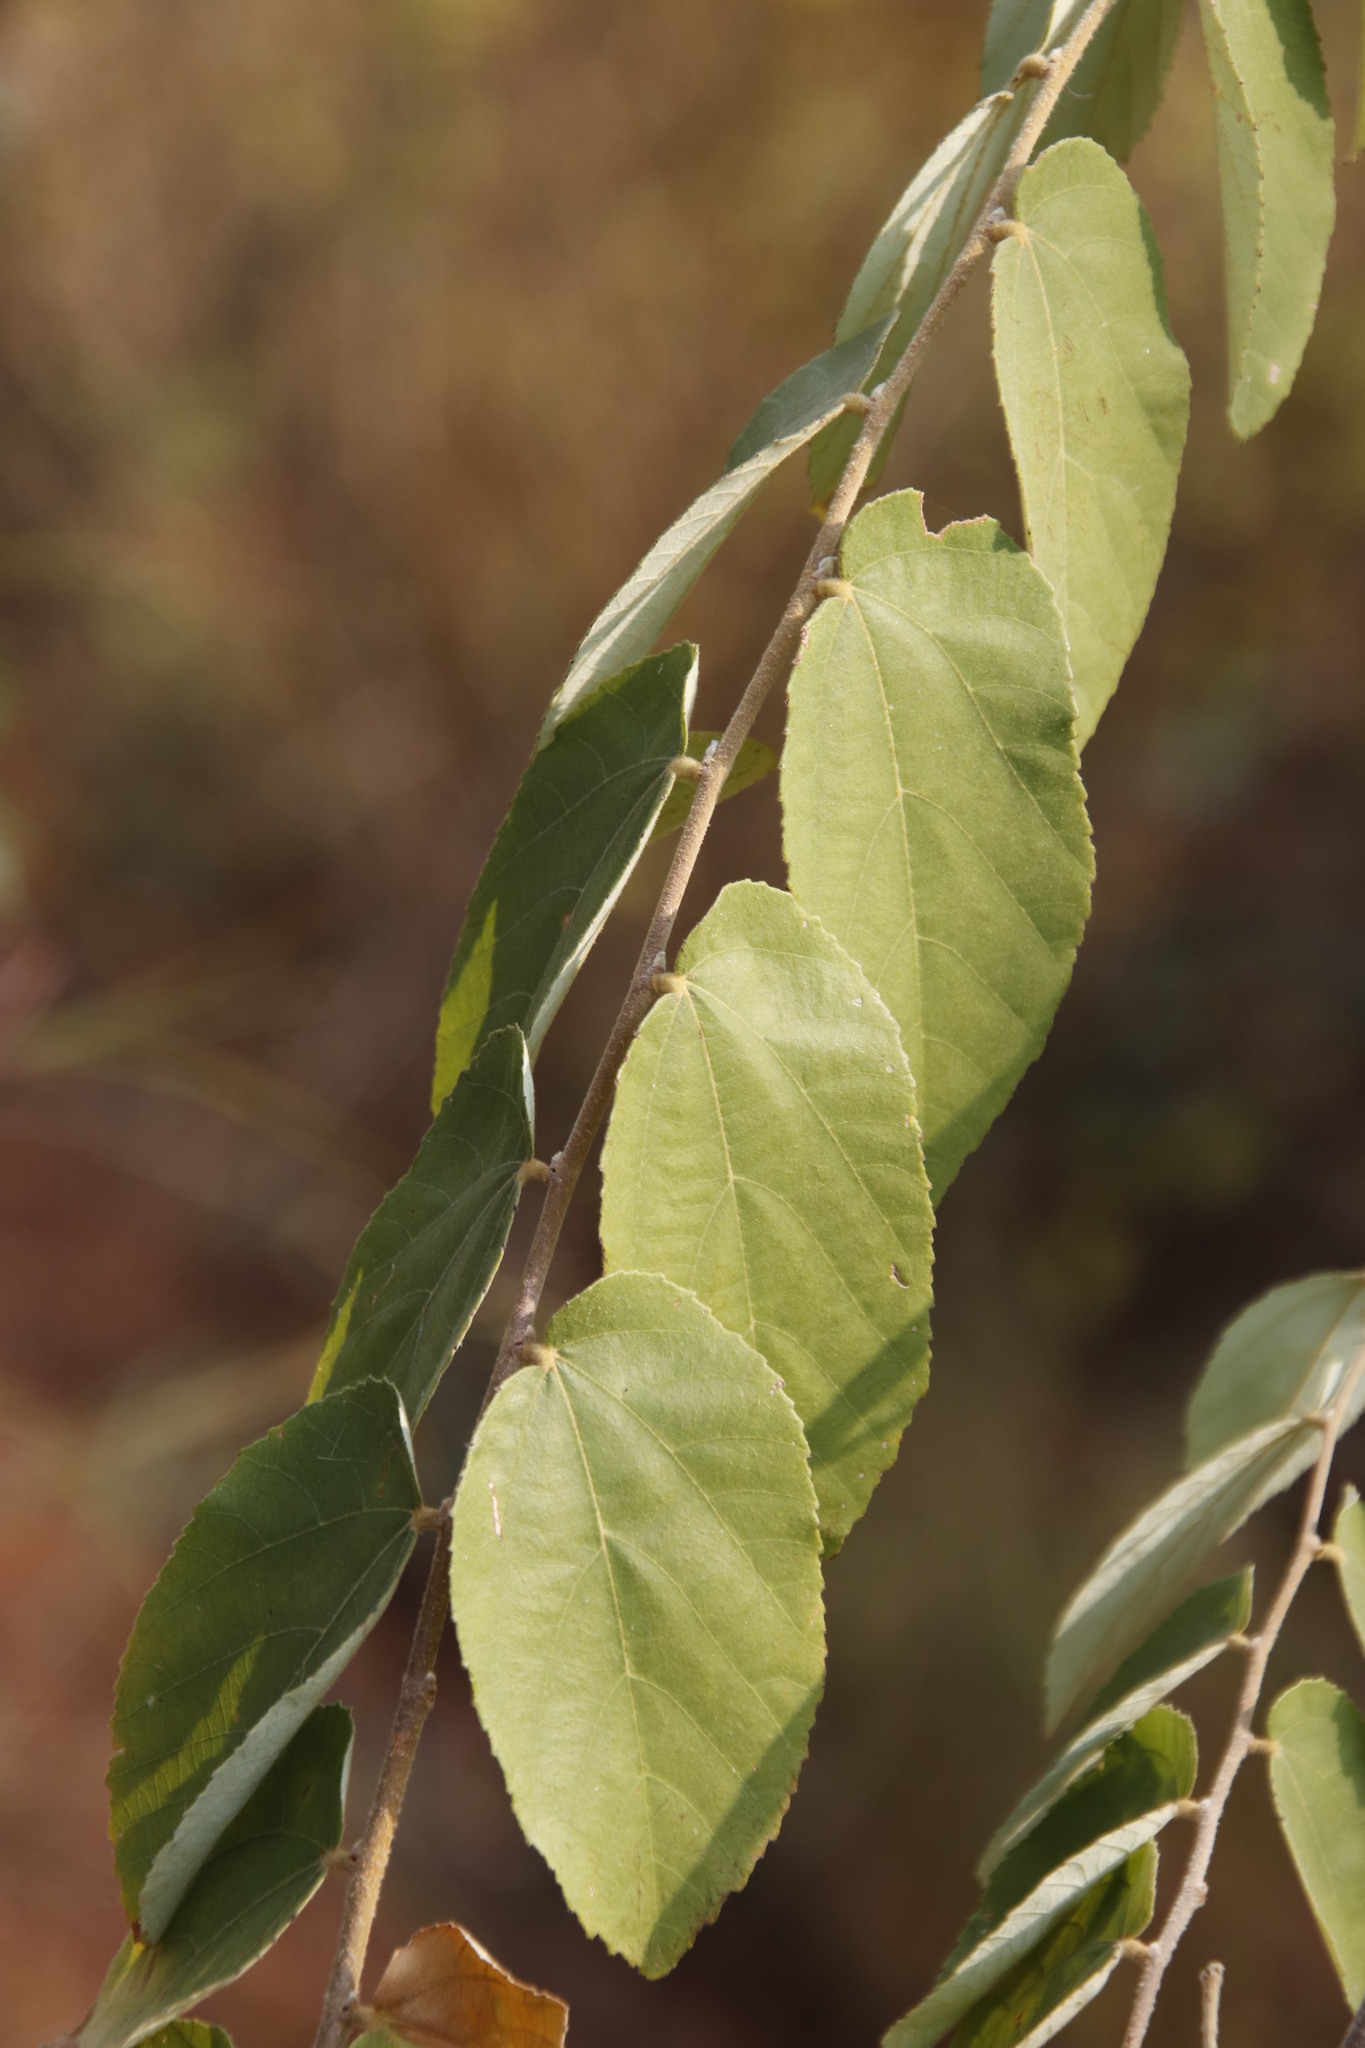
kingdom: Plantae
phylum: Tracheophyta
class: Magnoliopsida
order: Malvales
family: Malvaceae
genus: Grewia
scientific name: Grewia hexamita
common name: Giant raisin
